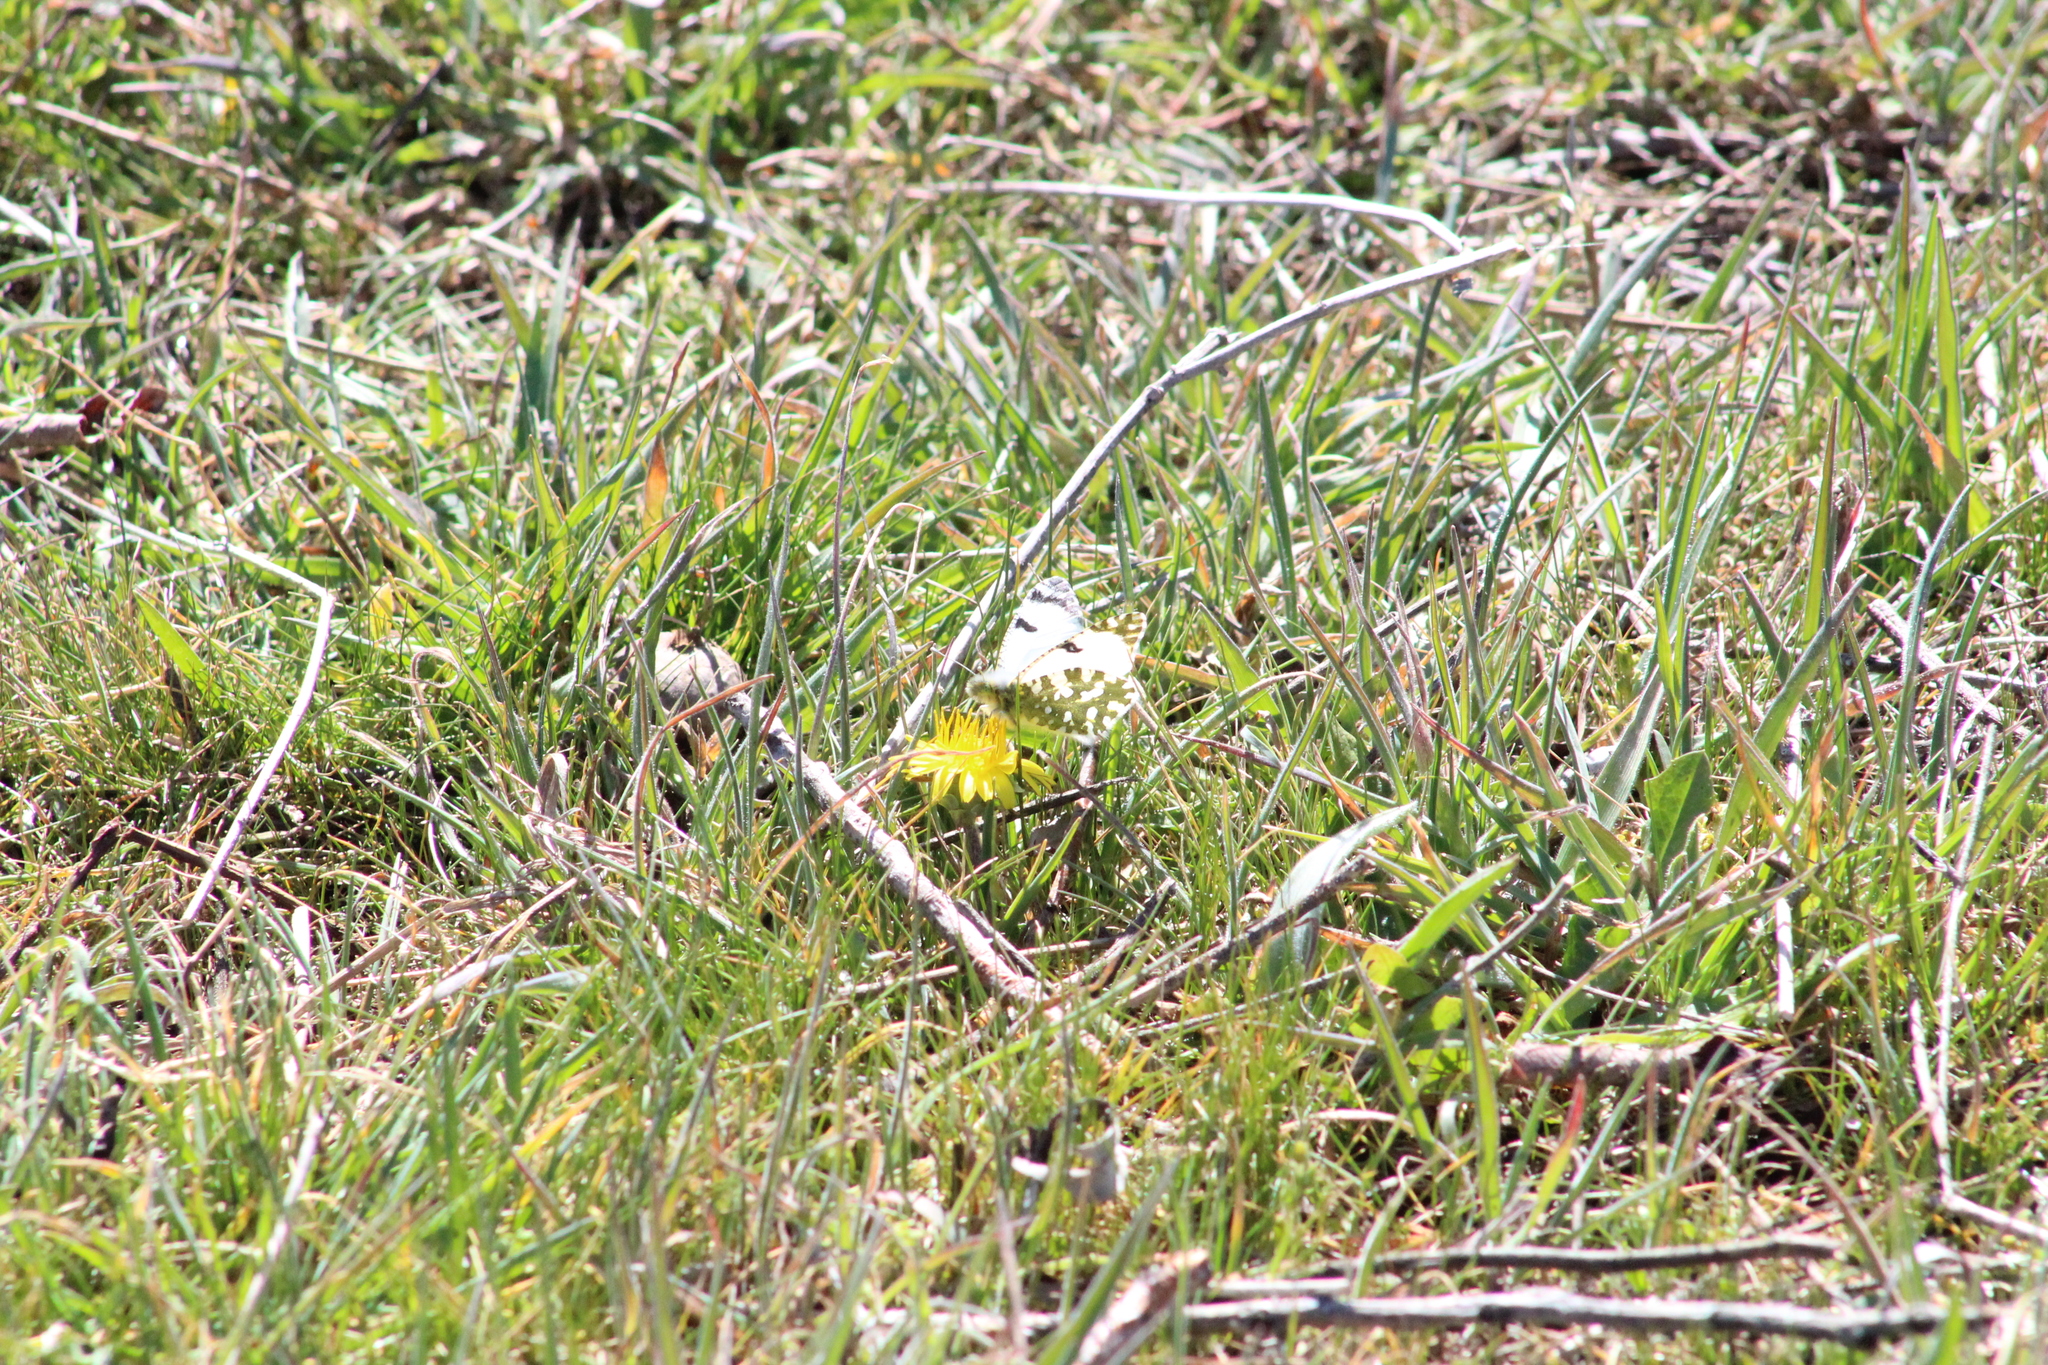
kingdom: Animalia
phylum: Arthropoda
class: Insecta
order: Lepidoptera
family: Pieridae
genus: Euchloe
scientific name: Euchloe crameri
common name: Western dappled white
